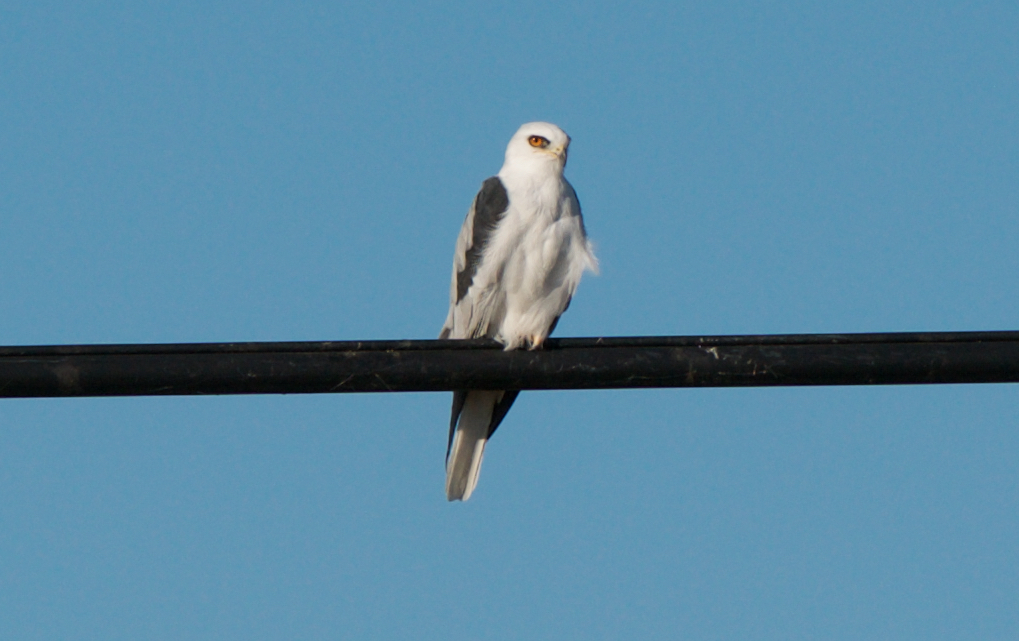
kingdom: Animalia
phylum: Chordata
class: Aves
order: Accipitriformes
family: Accipitridae
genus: Elanus
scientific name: Elanus leucurus
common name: White-tailed kite
